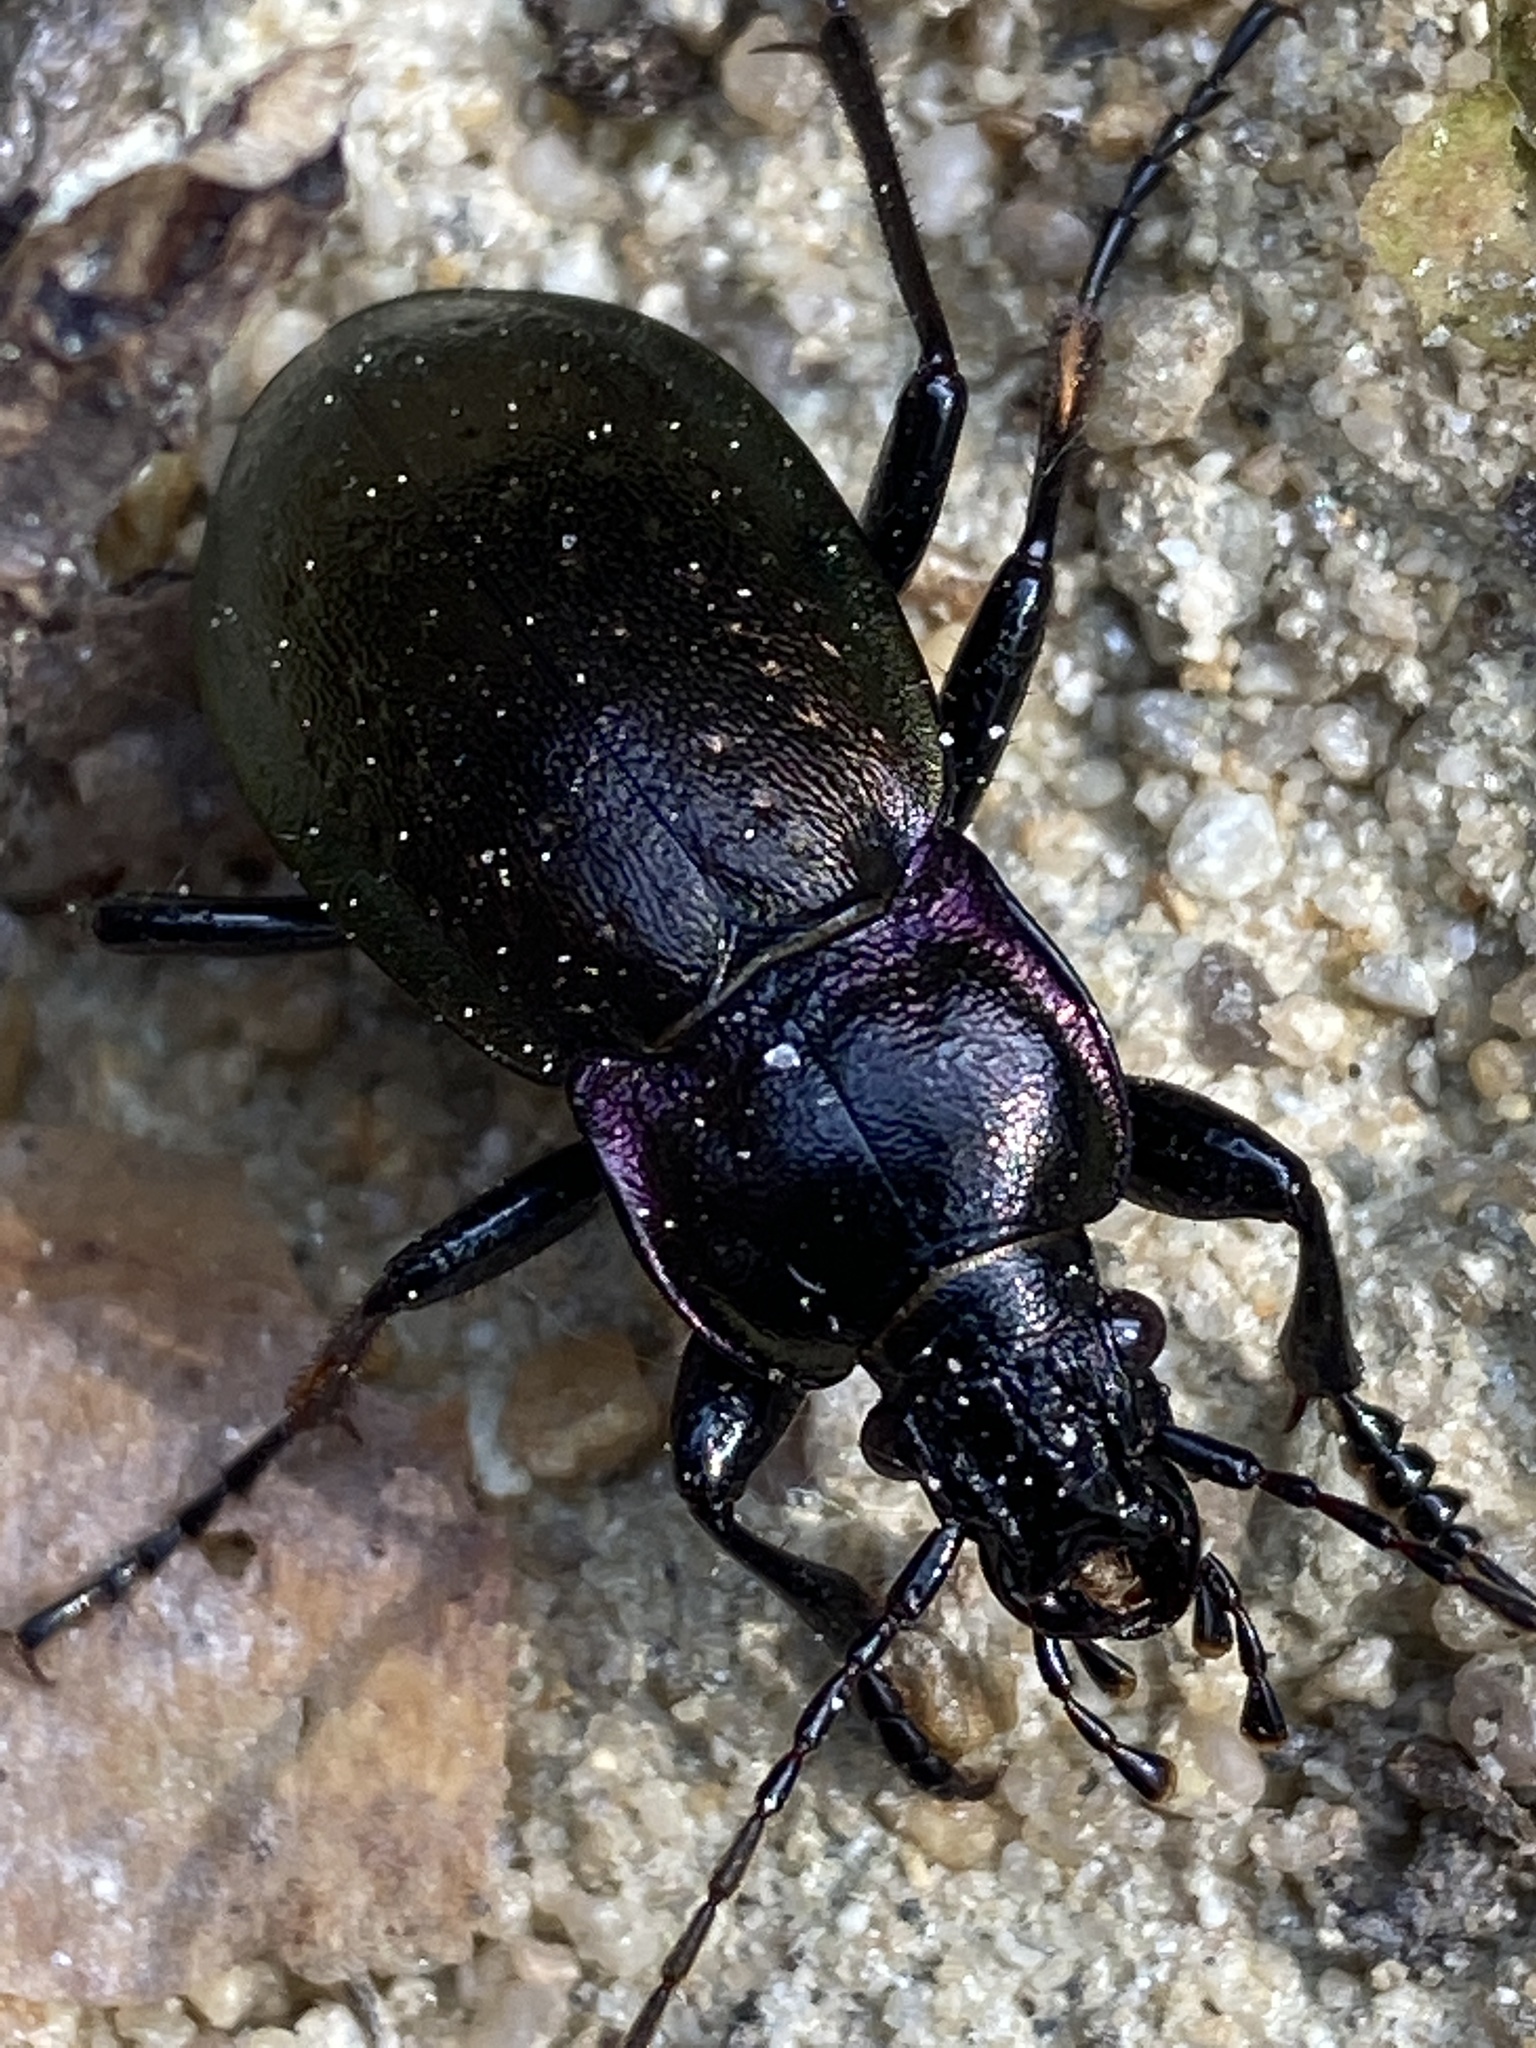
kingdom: Animalia
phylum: Arthropoda
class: Insecta
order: Coleoptera
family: Carabidae
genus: Carabus
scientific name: Carabus nemoralis
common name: European ground beetle
